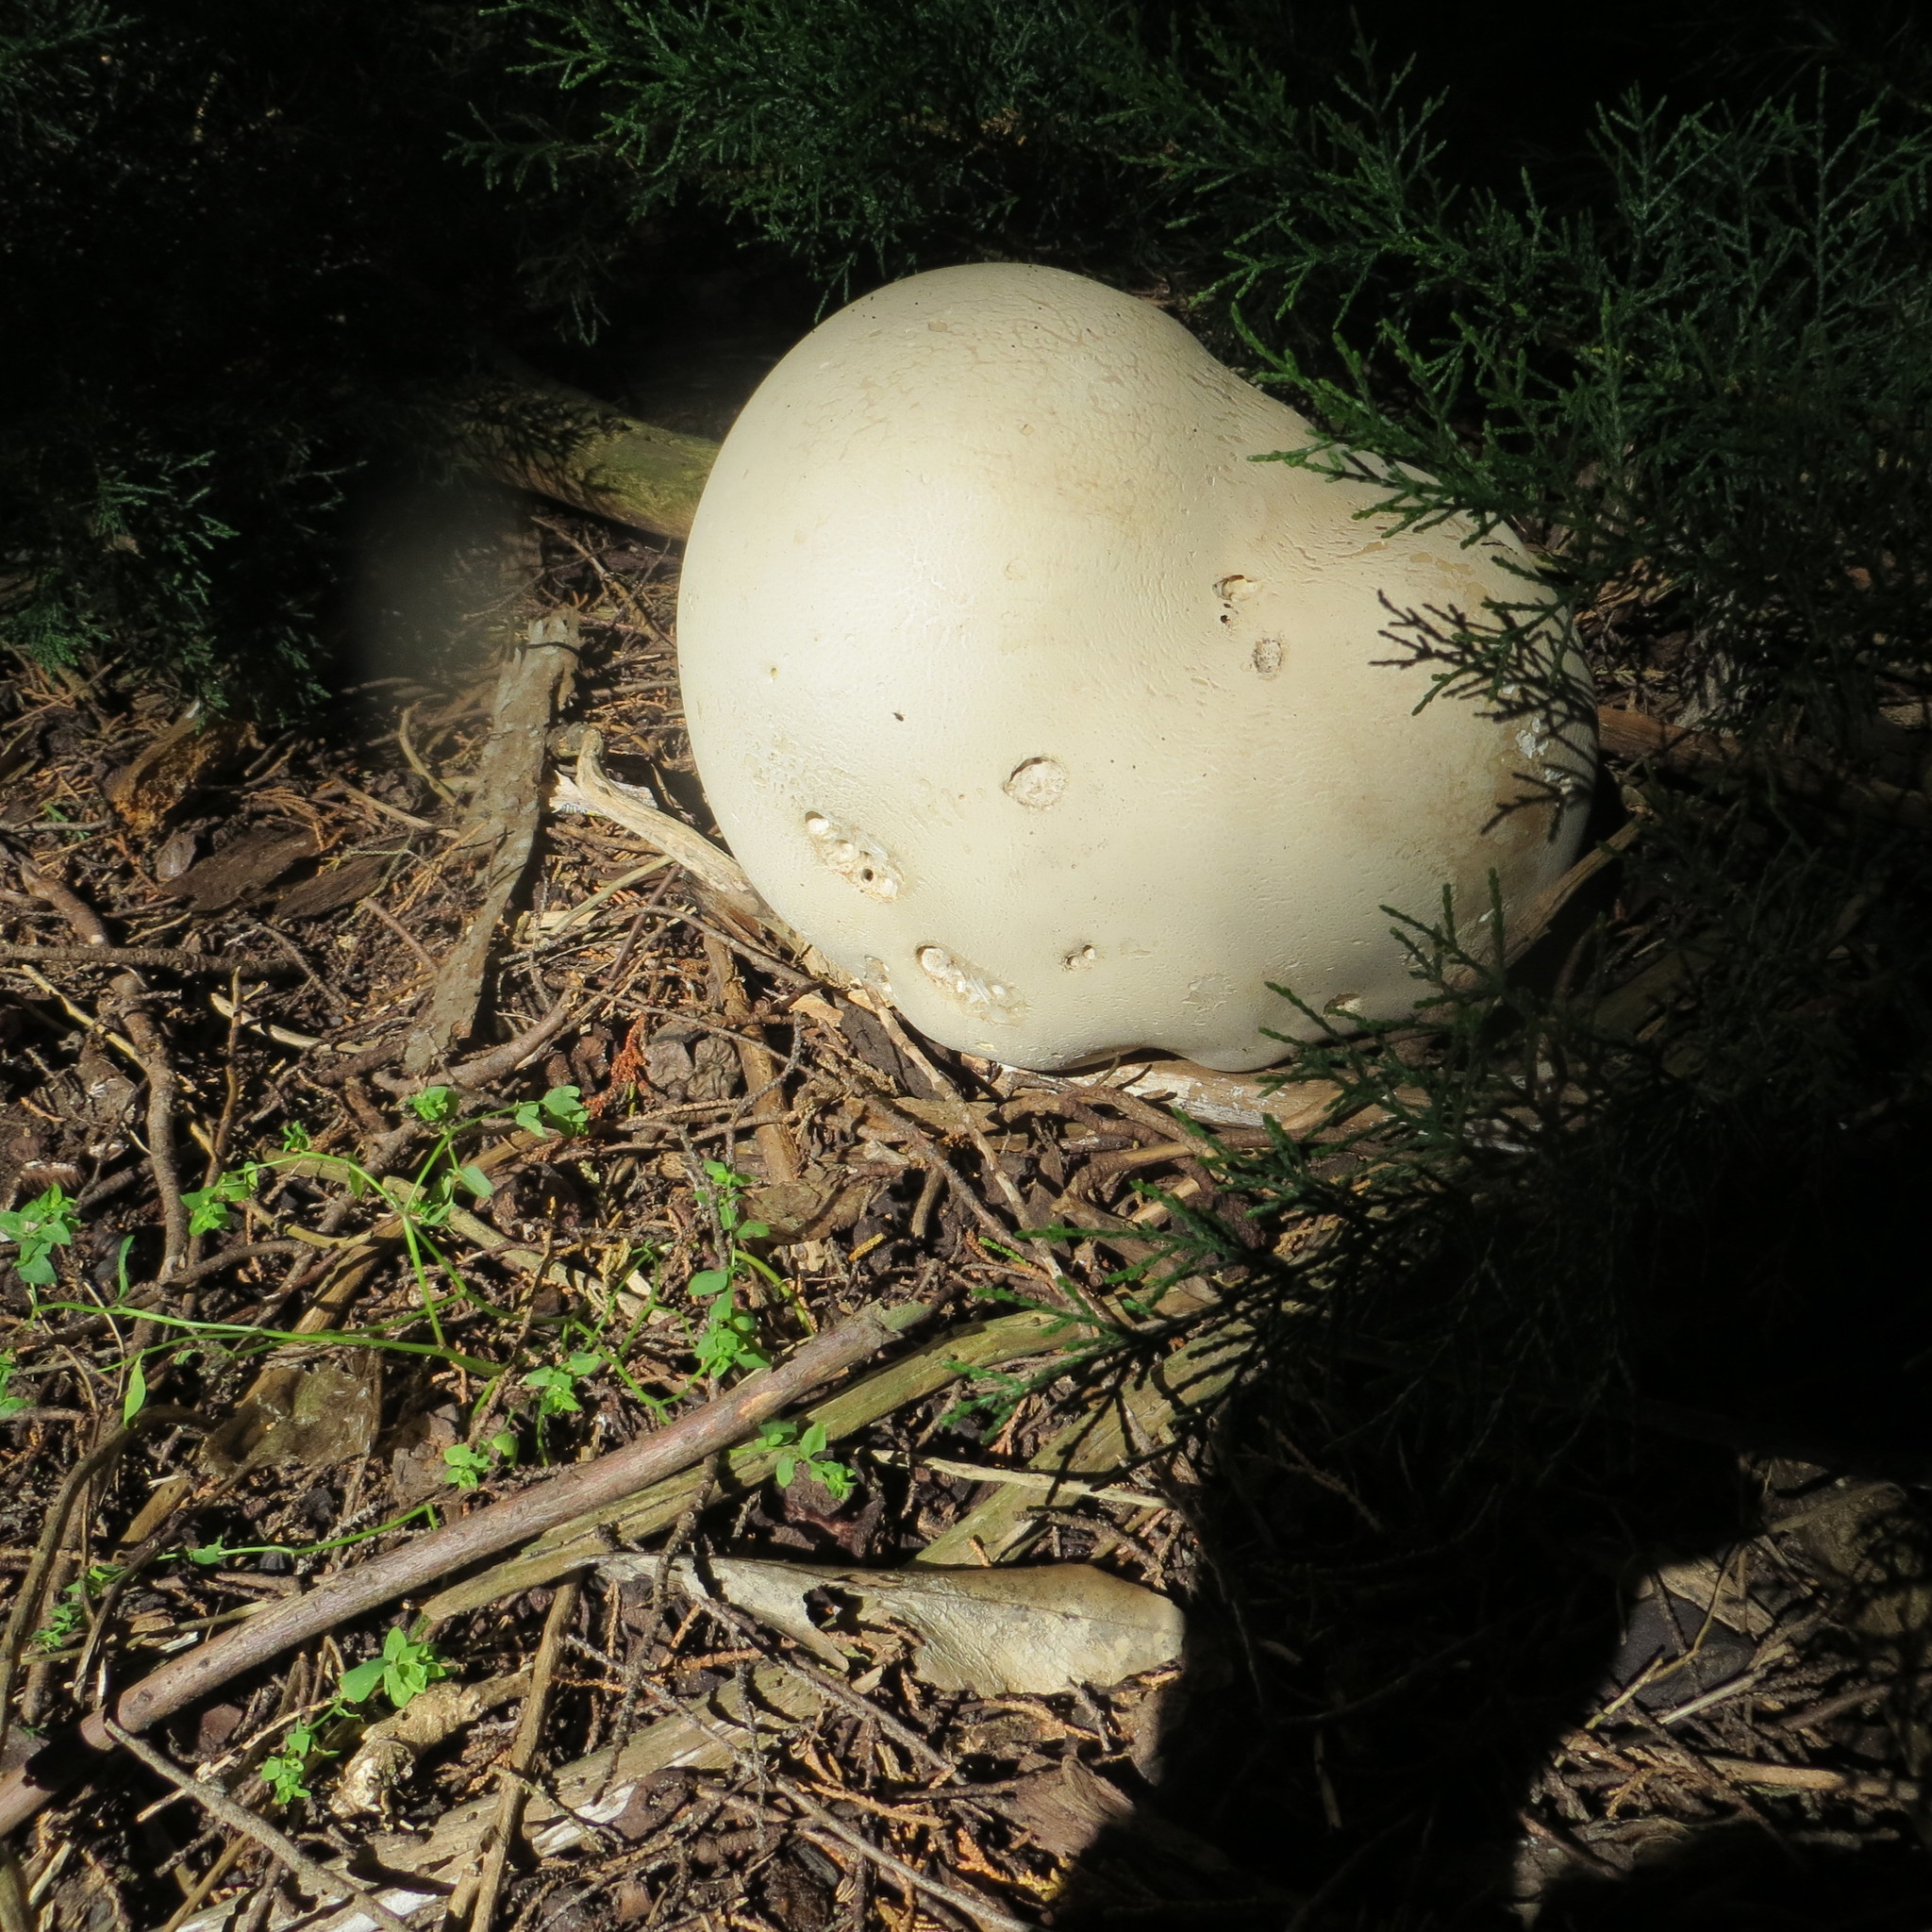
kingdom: Fungi
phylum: Basidiomycota
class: Agaricomycetes
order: Agaricales
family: Lycoperdaceae
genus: Calvatia
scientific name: Calvatia gigantea
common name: Giant puffball
